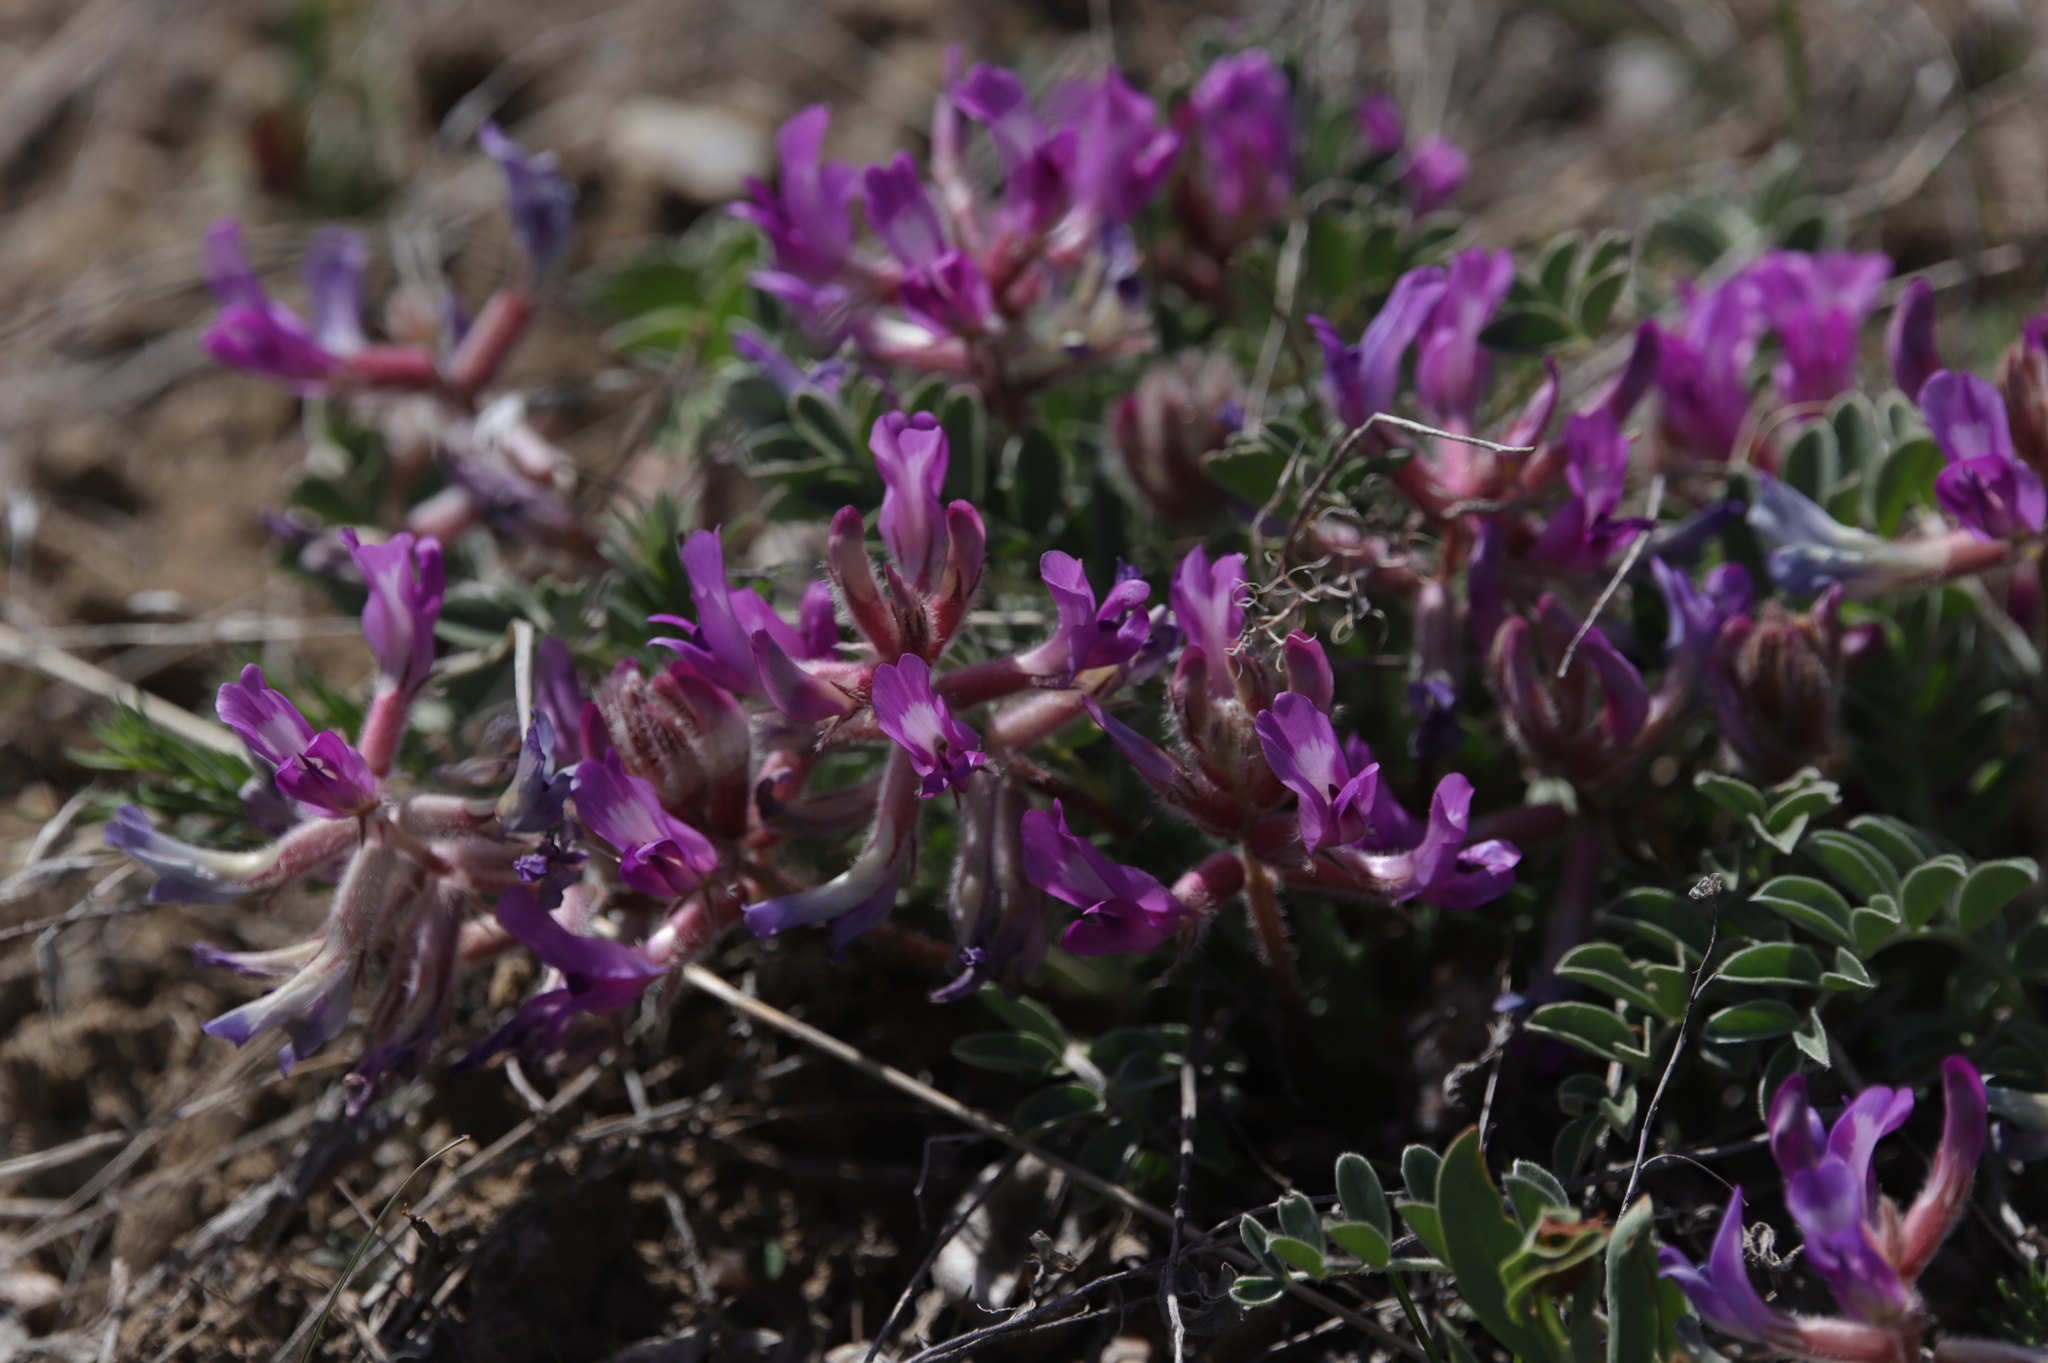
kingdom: Plantae
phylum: Tracheophyta
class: Magnoliopsida
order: Fabales
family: Fabaceae
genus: Astragalus
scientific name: Astragalus shortianus
